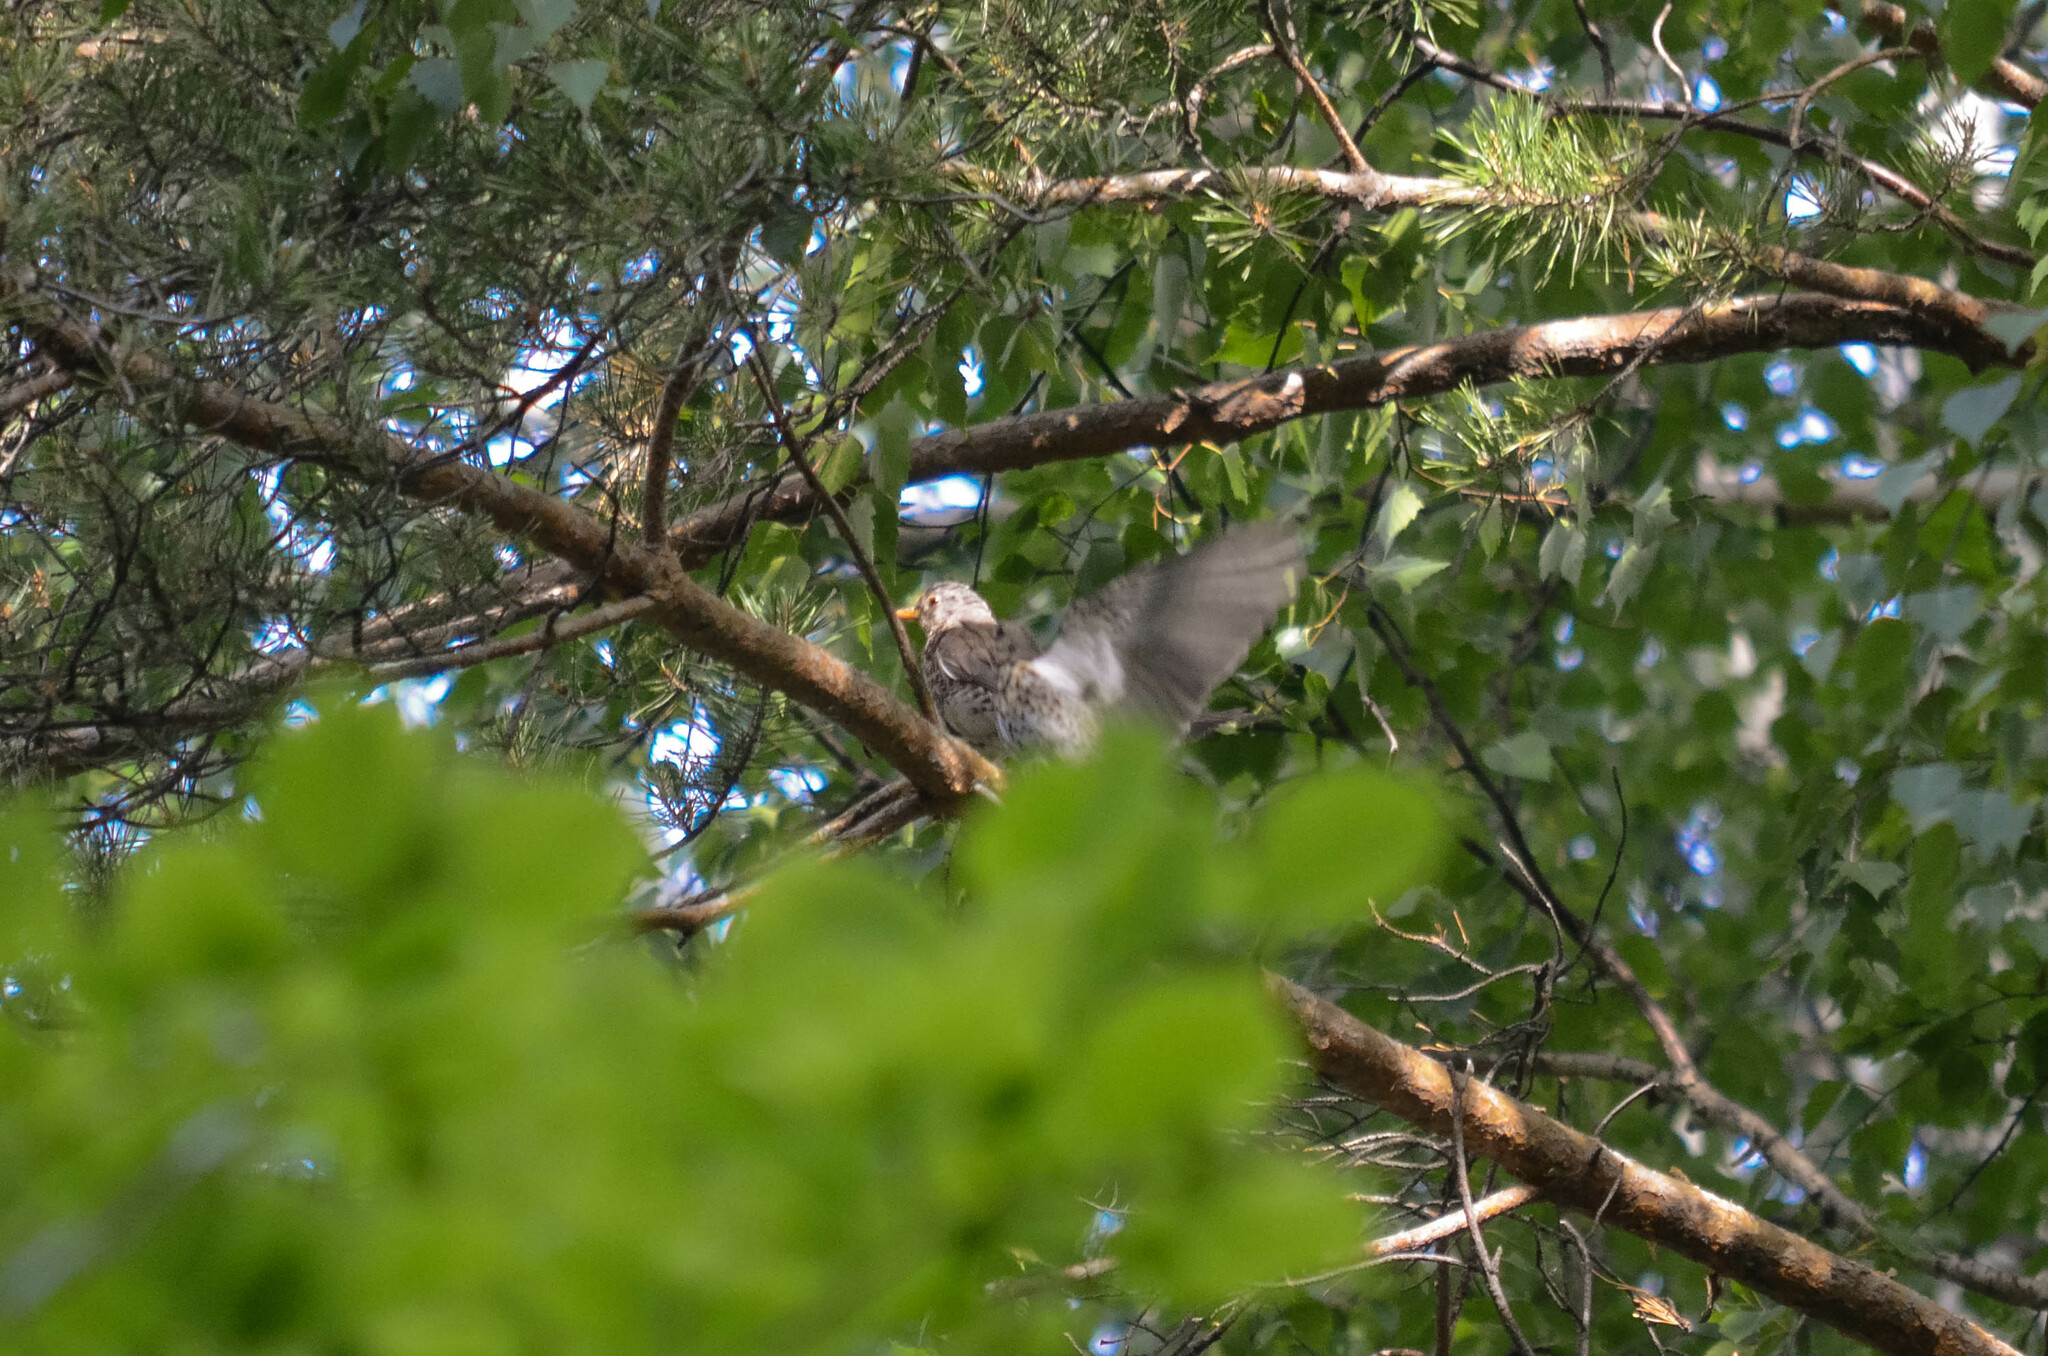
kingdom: Animalia
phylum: Chordata
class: Aves
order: Passeriformes
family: Turdidae
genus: Turdus
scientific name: Turdus pilaris
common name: Fieldfare
